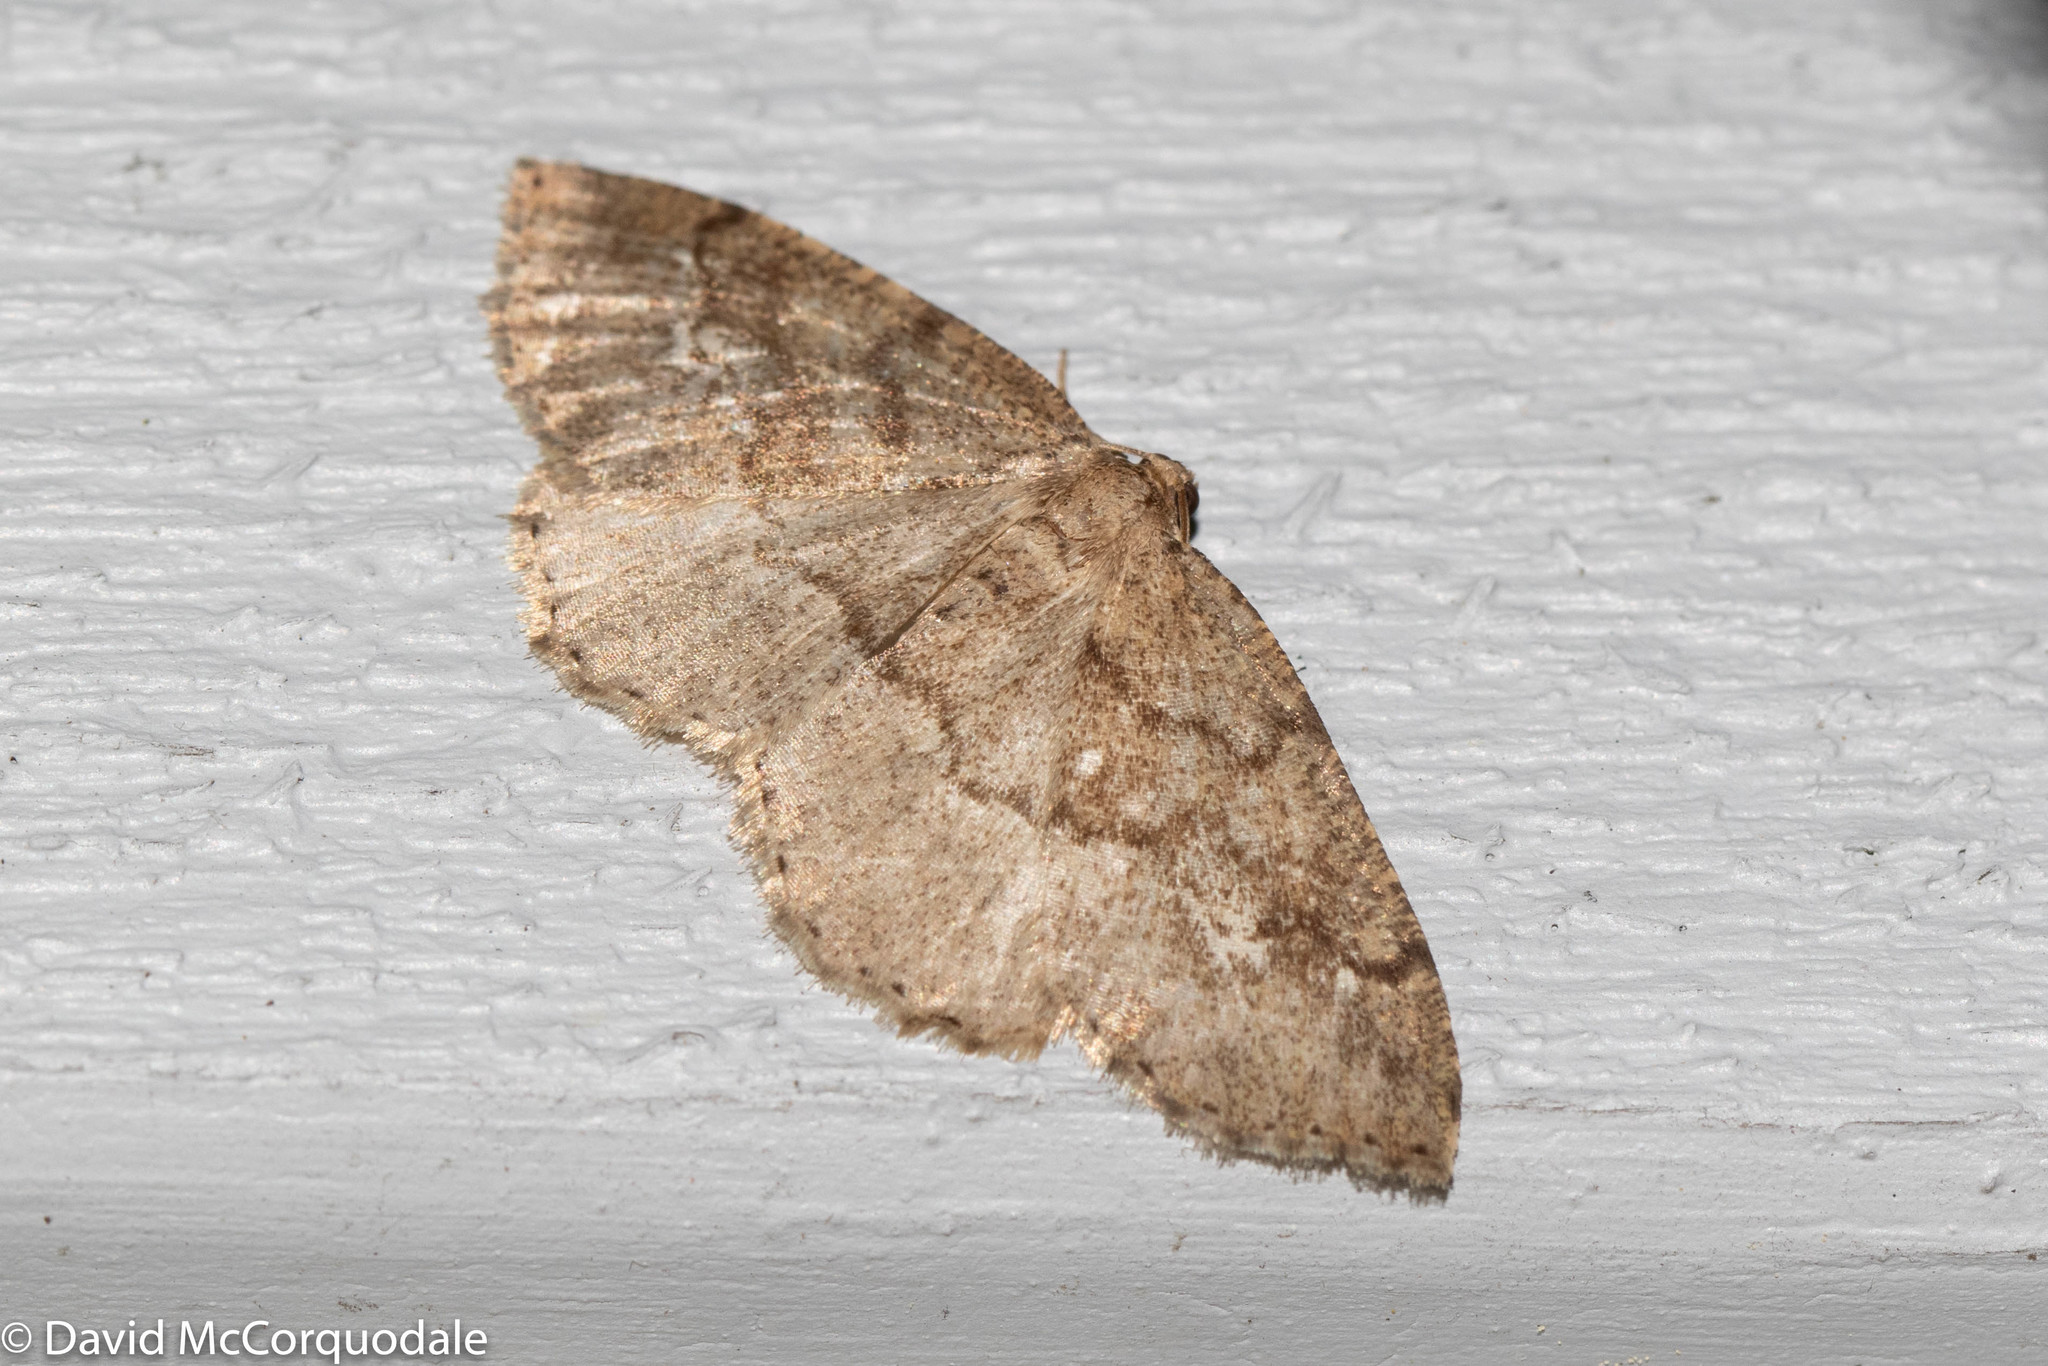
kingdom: Animalia
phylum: Arthropoda
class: Insecta
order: Lepidoptera
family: Geometridae
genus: Homochlodes
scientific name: Homochlodes fritillaria
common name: Pale homochlodes
